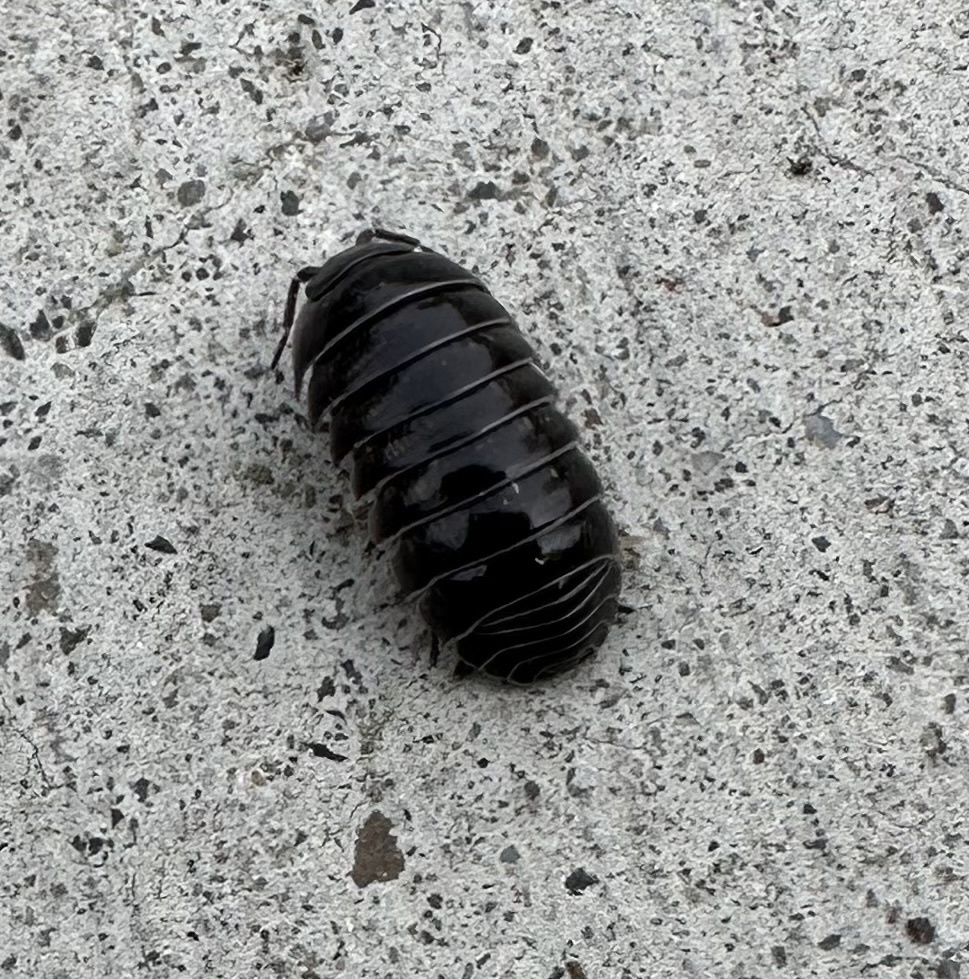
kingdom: Animalia
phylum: Arthropoda
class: Malacostraca
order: Isopoda
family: Armadillidiidae
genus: Armadillidium
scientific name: Armadillidium vulgare
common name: Common pill woodlouse
